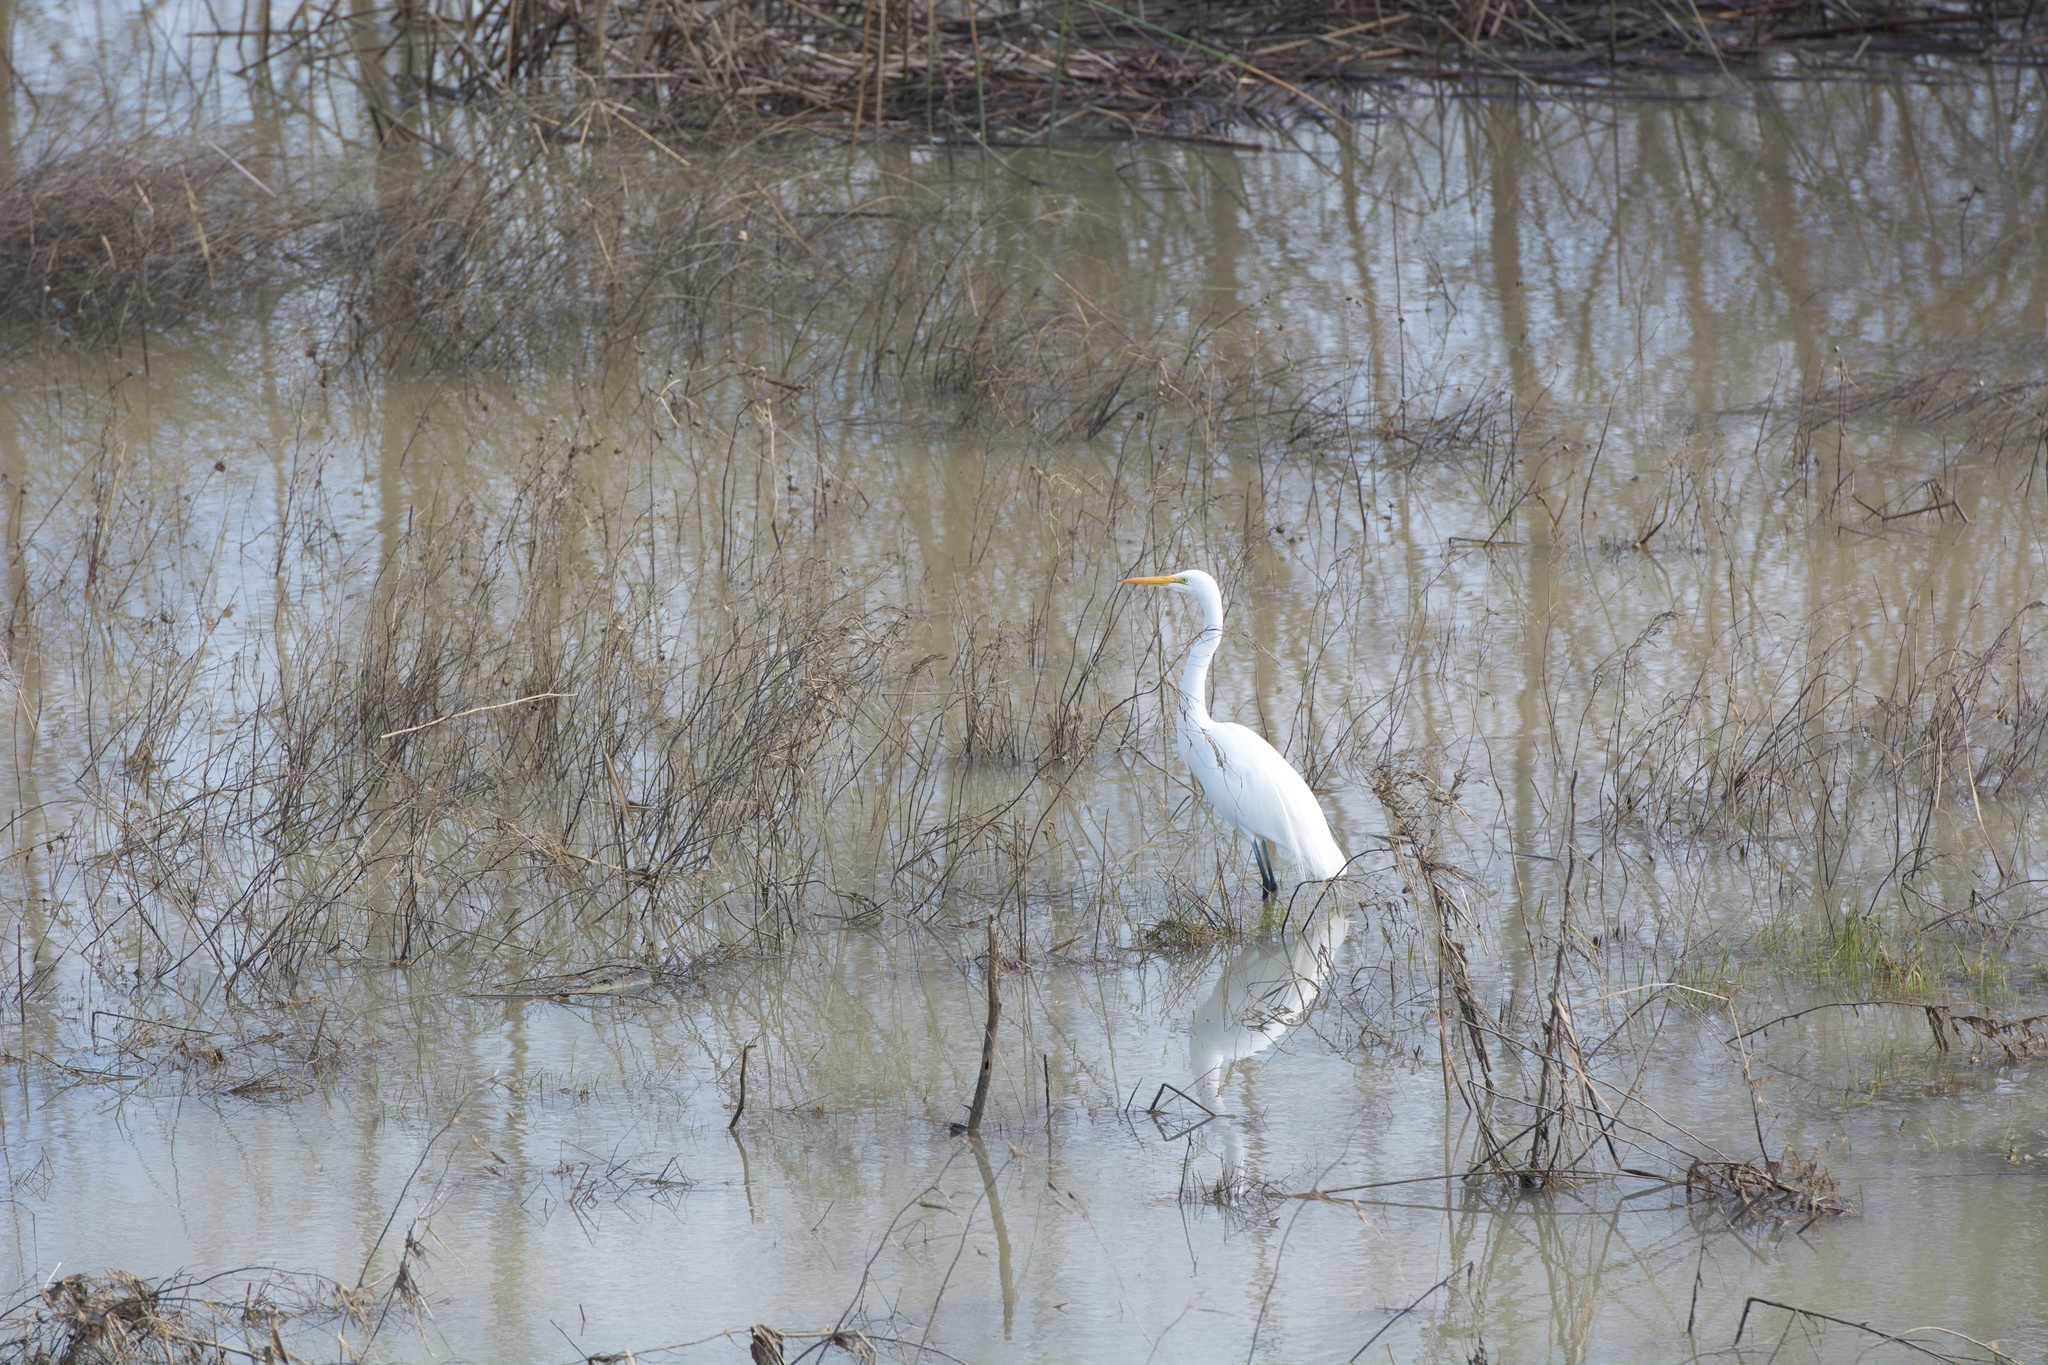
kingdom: Animalia
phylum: Chordata
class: Aves
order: Pelecaniformes
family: Ardeidae
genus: Ardea
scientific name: Ardea alba
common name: Great egret
